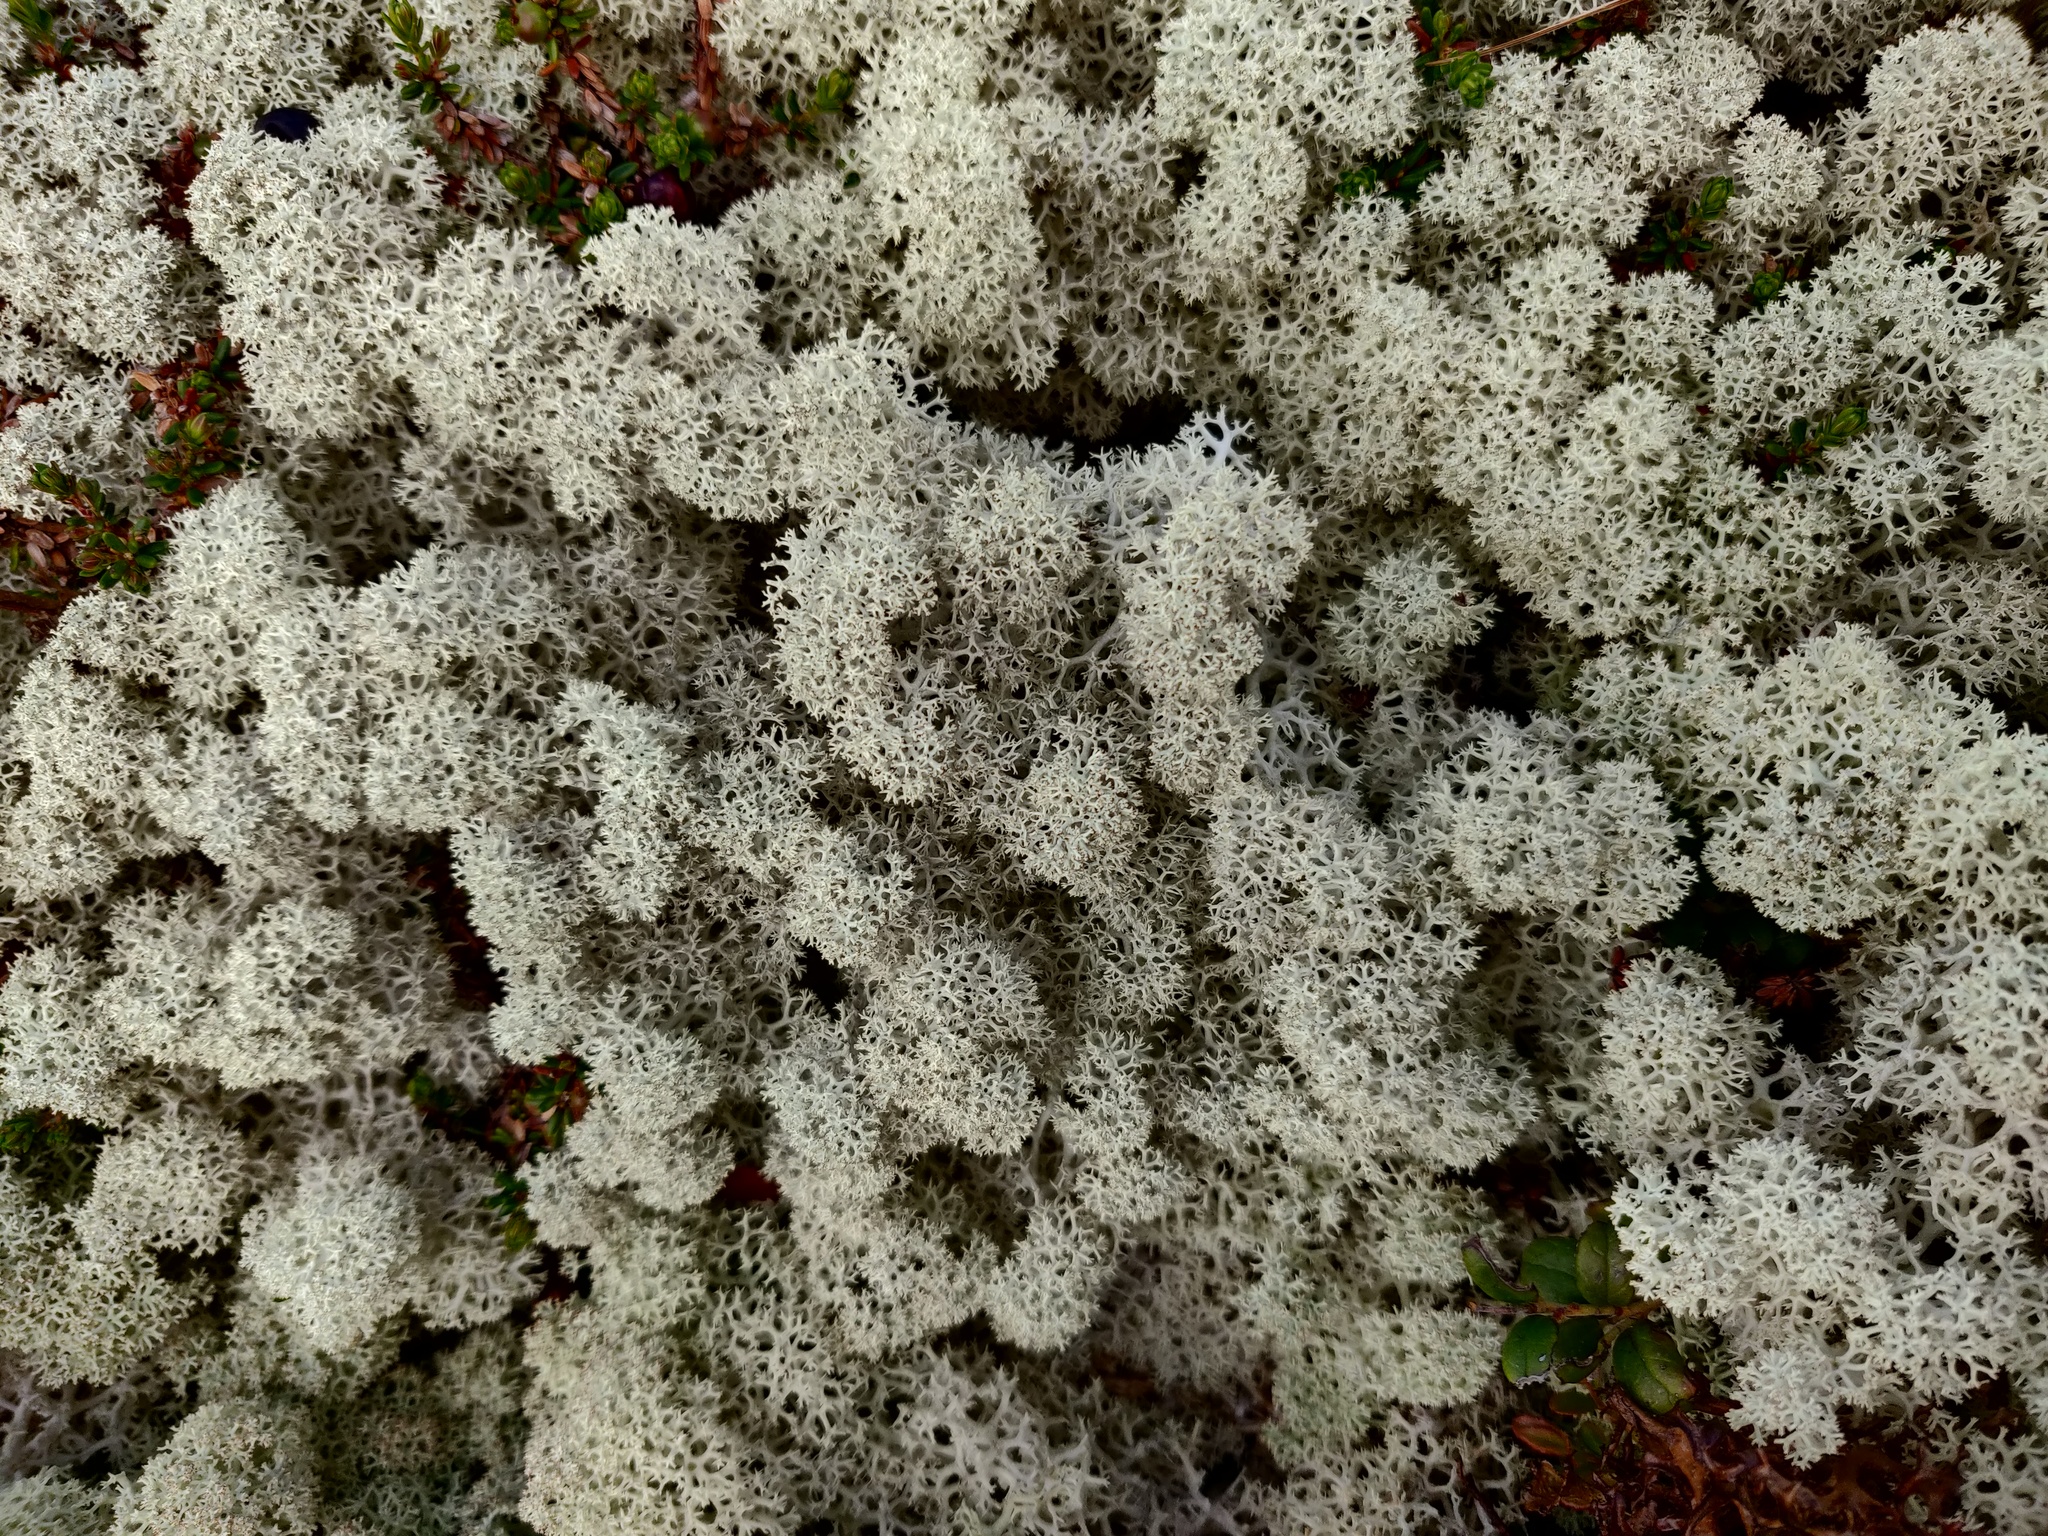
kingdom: Fungi
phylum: Ascomycota
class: Lecanoromycetes
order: Lecanorales
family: Cladoniaceae
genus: Cladonia
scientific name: Cladonia stellaris
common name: Star-tipped reindeer lichen
